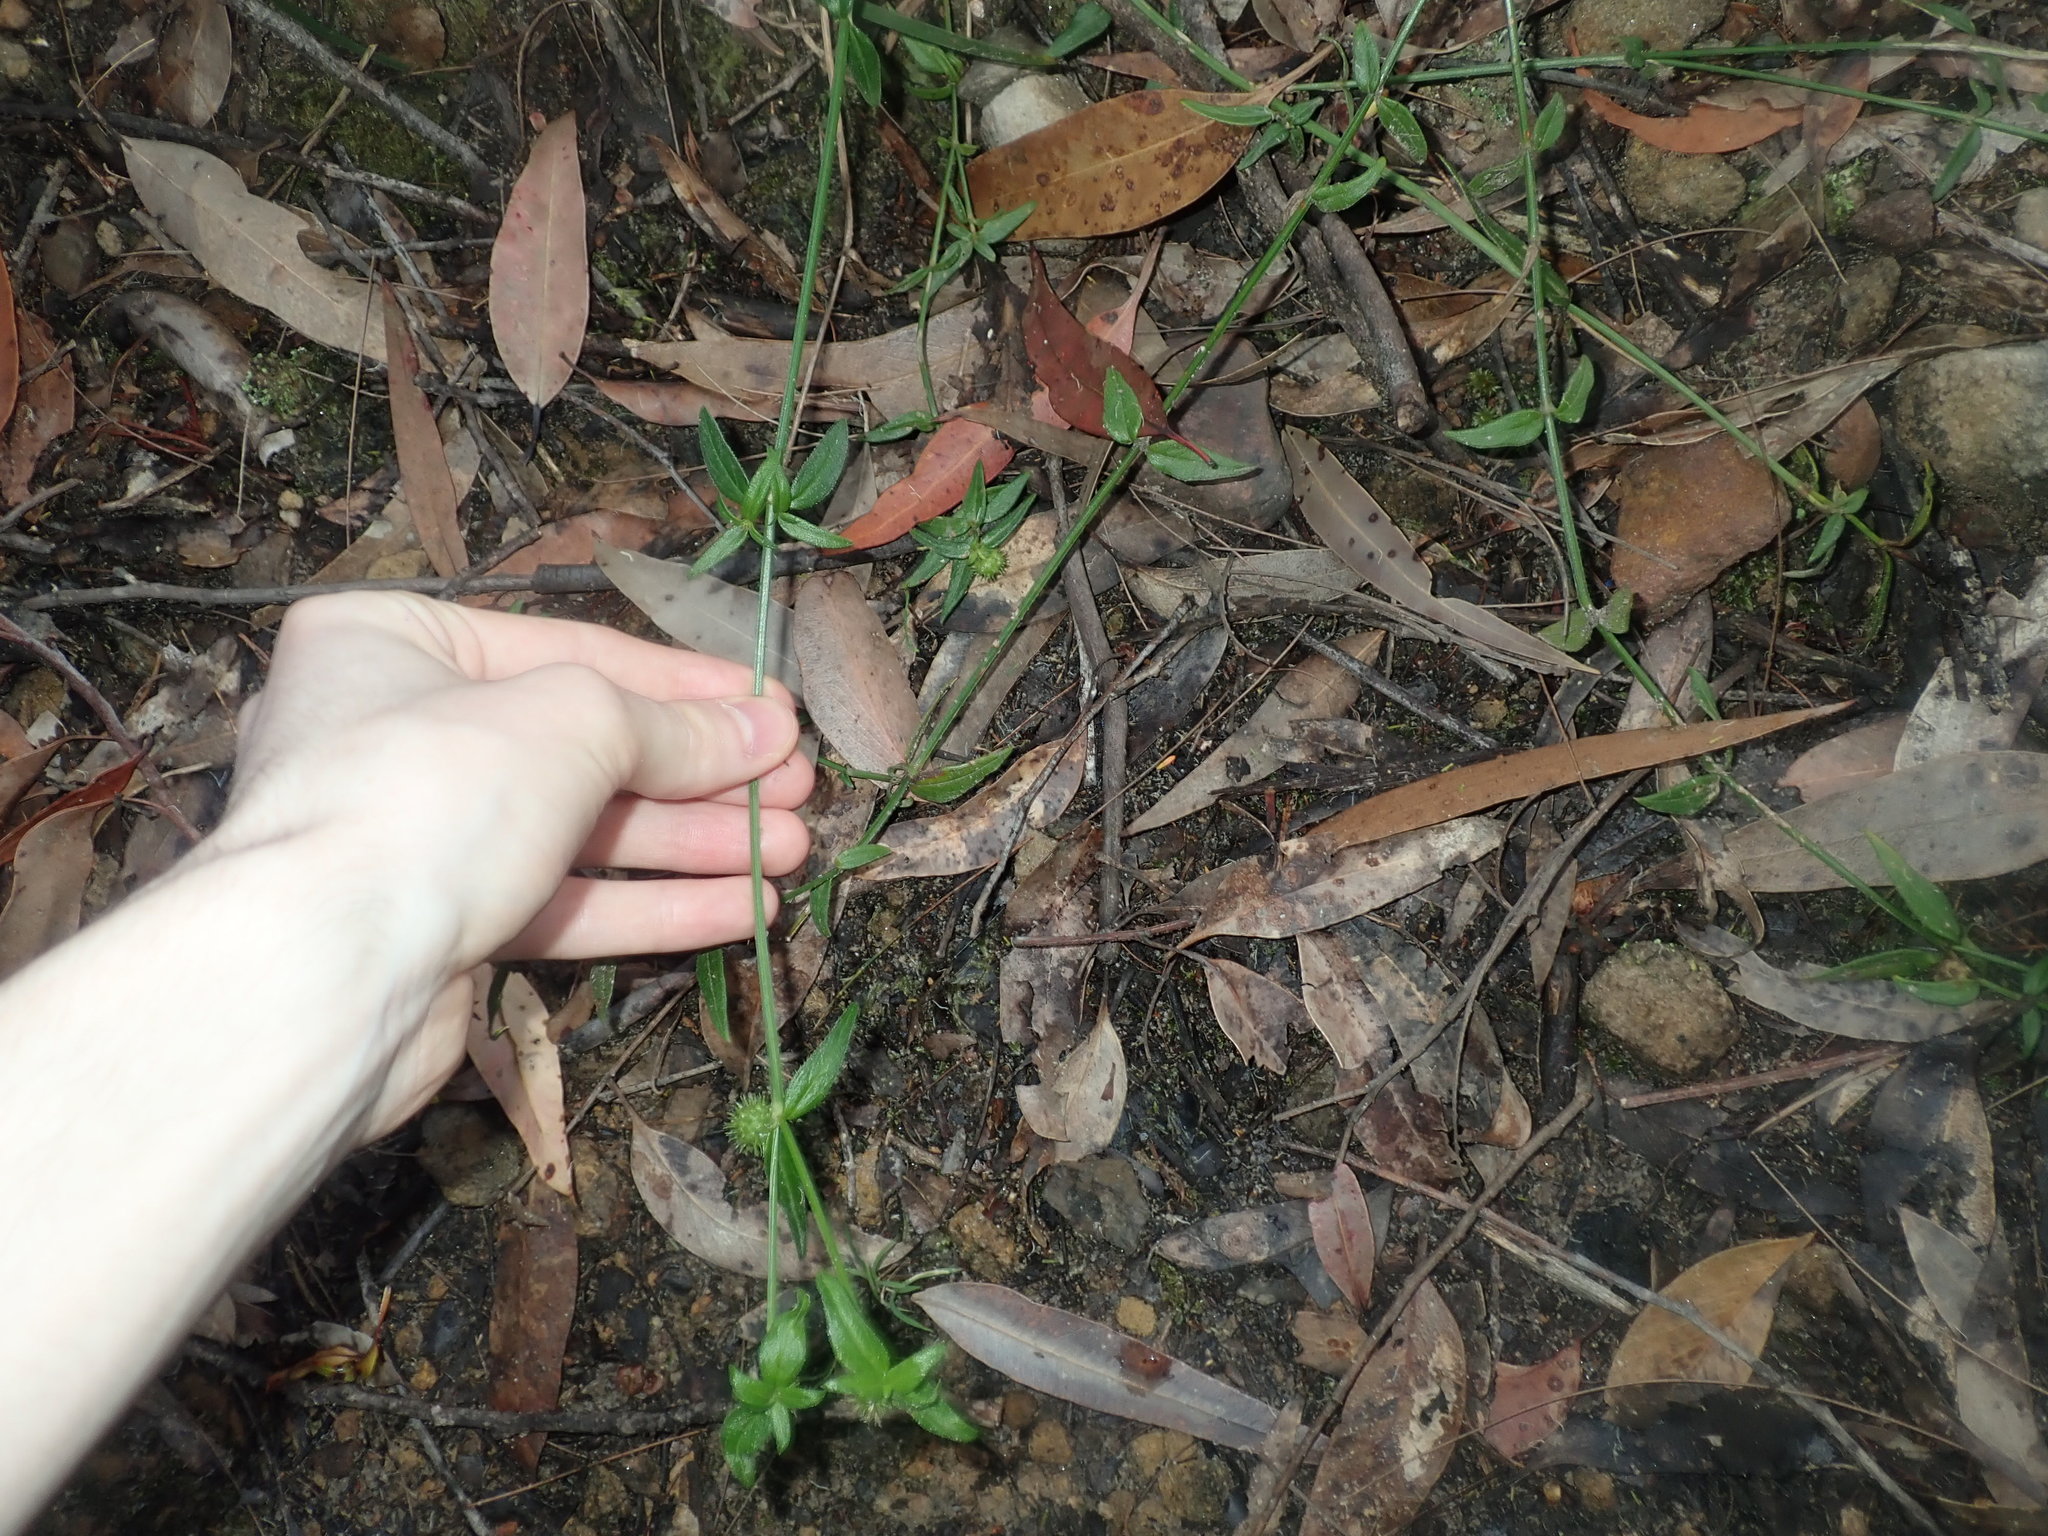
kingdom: Plantae
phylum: Tracheophyta
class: Magnoliopsida
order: Gentianales
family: Rubiaceae
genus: Opercularia
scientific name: Opercularia aspera
